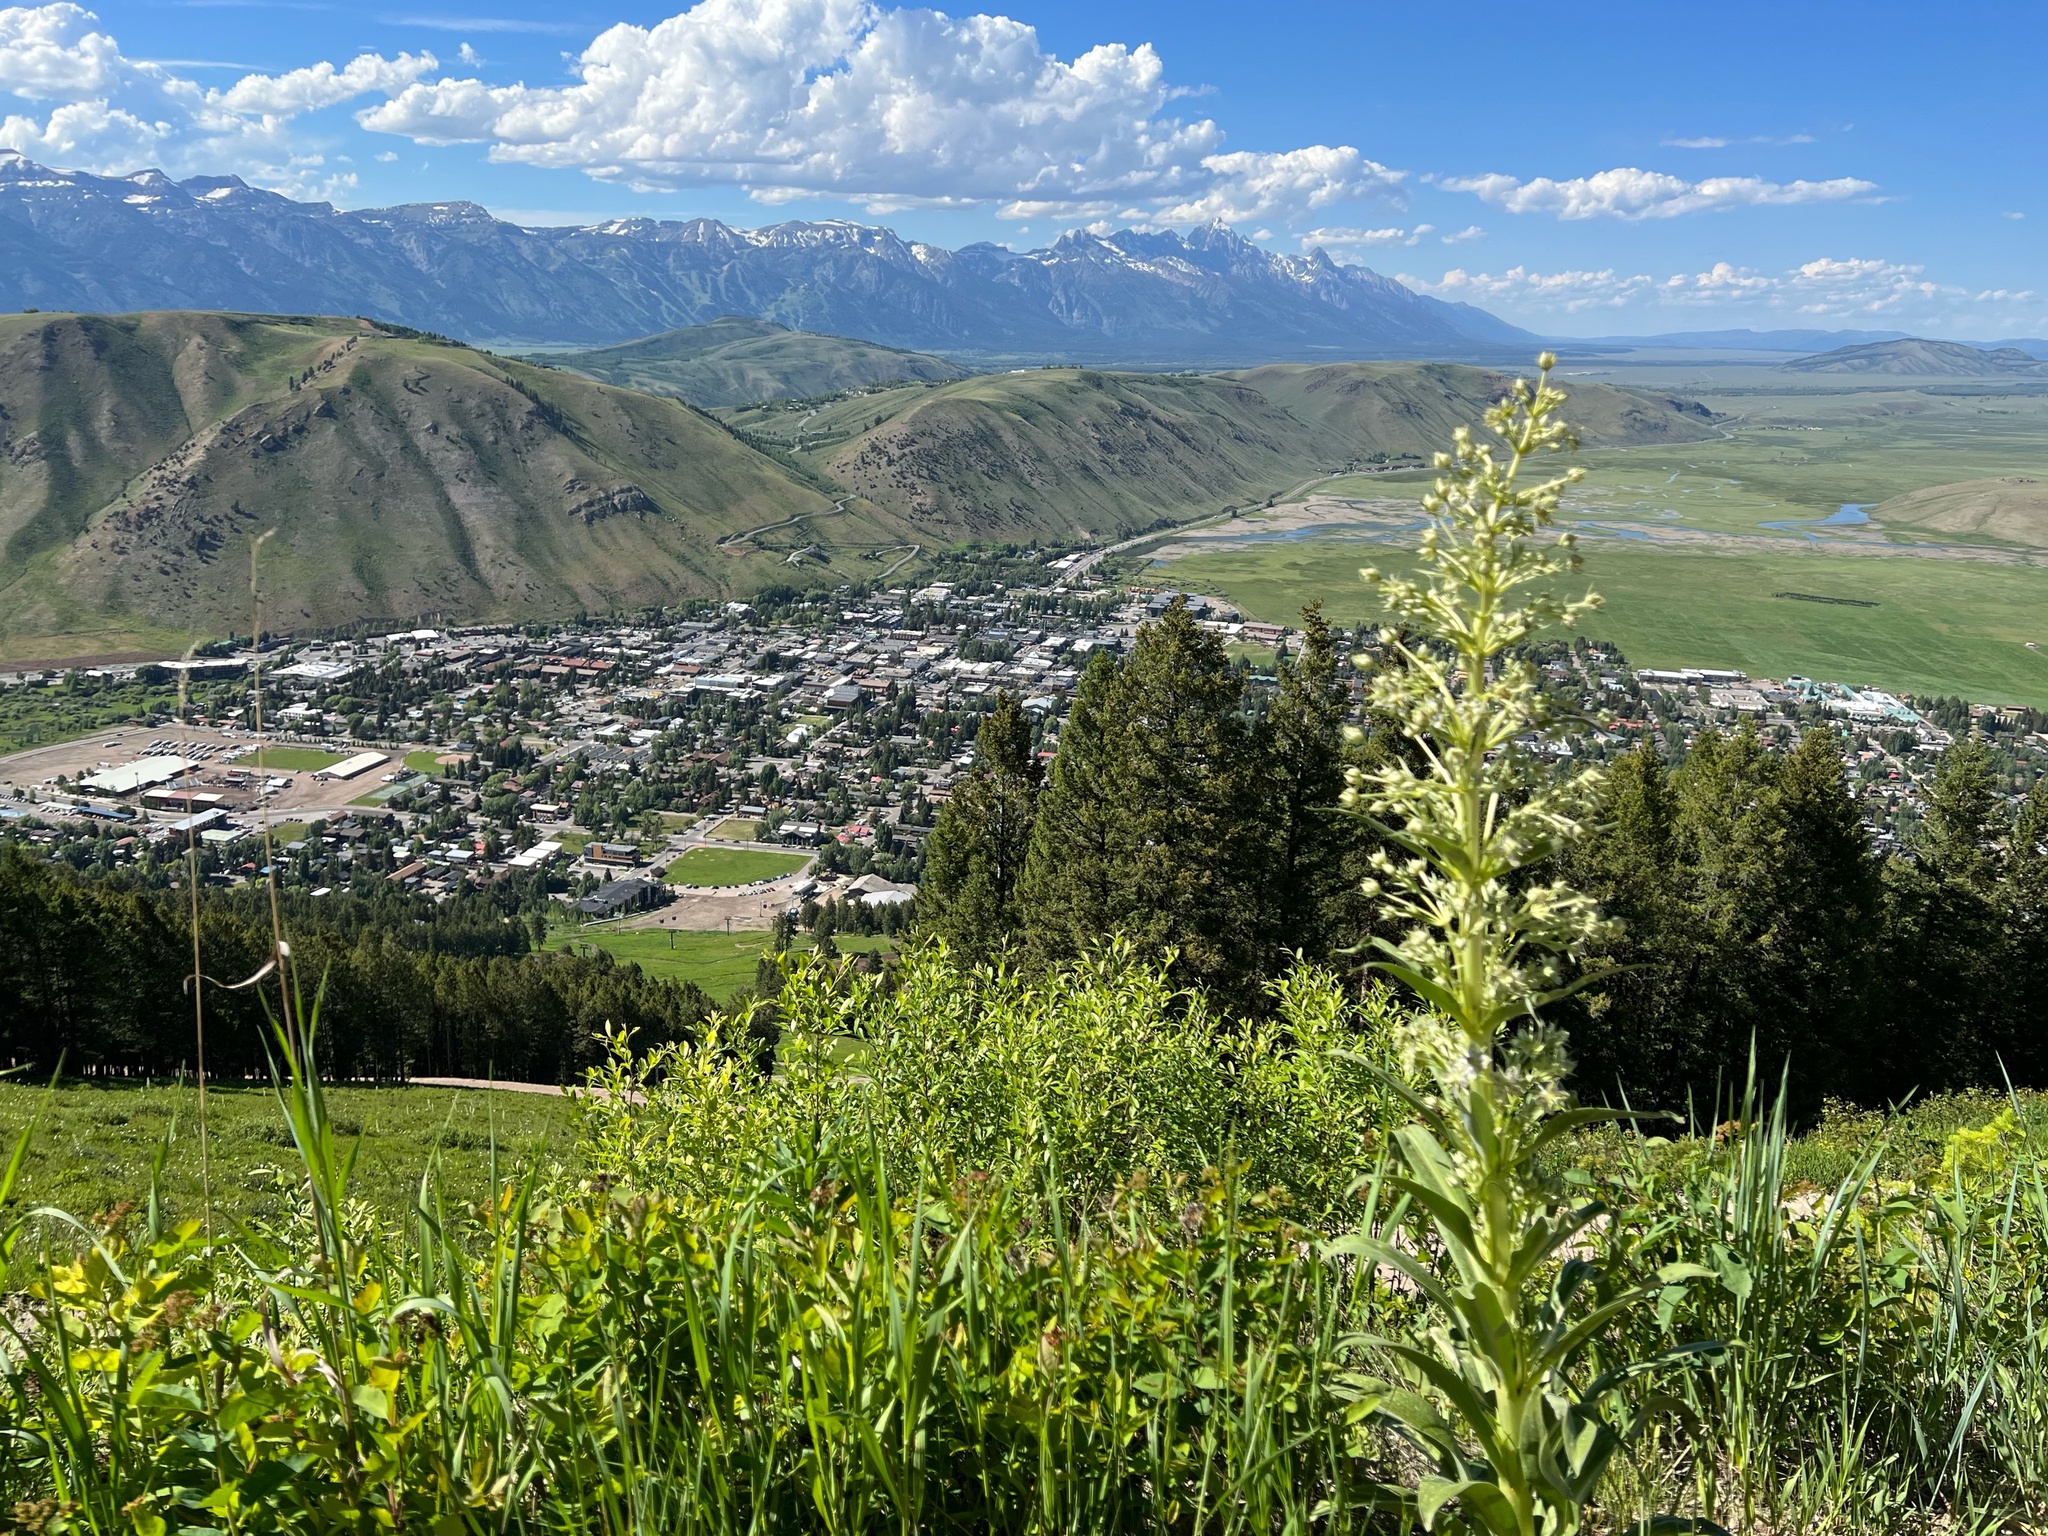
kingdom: Plantae
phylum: Tracheophyta
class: Magnoliopsida
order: Gentianales
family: Gentianaceae
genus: Frasera
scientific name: Frasera speciosa
